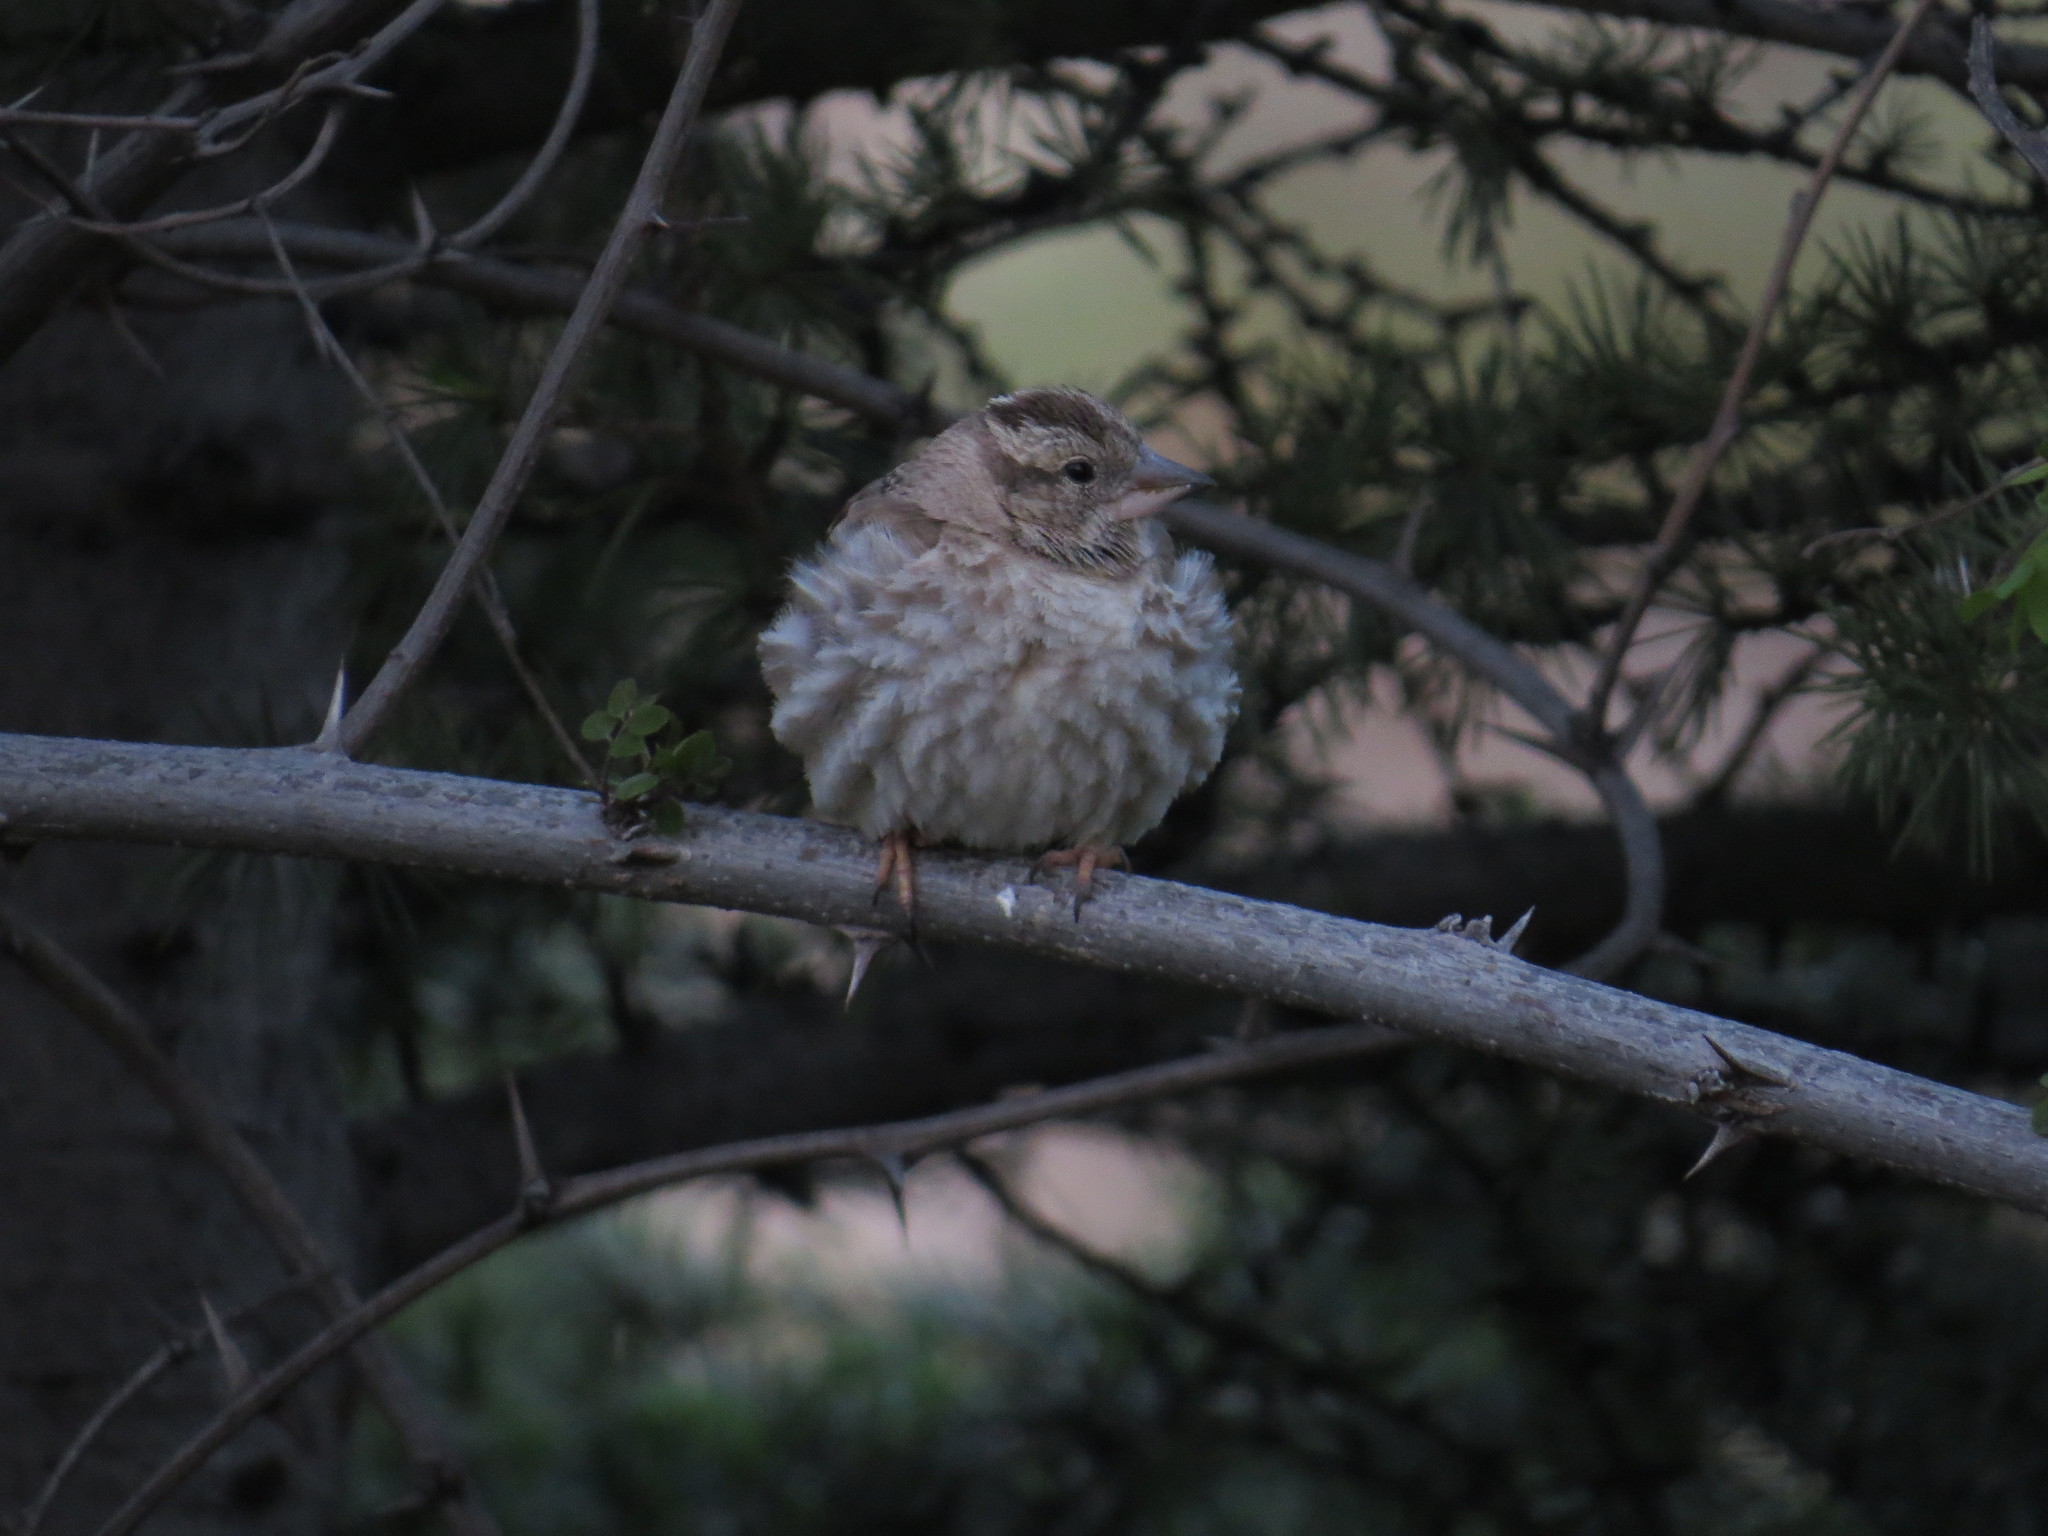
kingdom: Animalia
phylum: Chordata
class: Aves
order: Passeriformes
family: Passeridae
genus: Petronia
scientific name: Petronia petronia
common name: Rock sparrow
